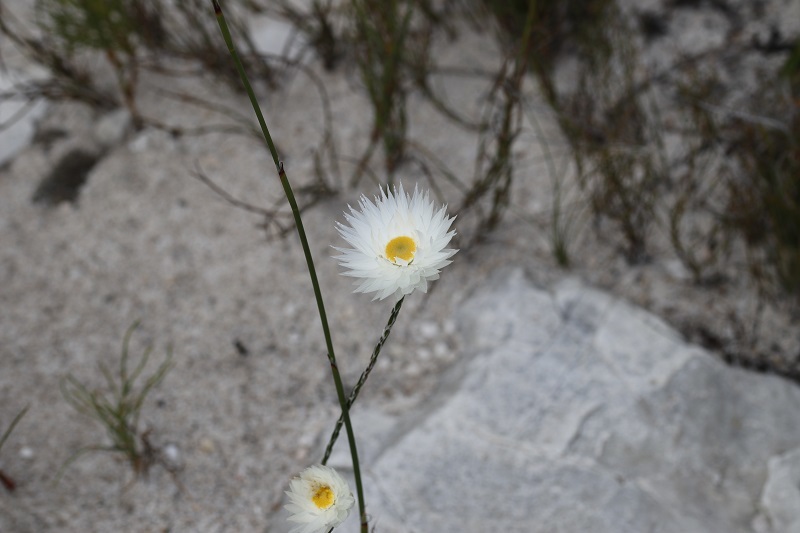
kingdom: Plantae
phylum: Tracheophyta
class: Magnoliopsida
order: Asterales
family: Asteraceae
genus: Edmondia
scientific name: Edmondia sesamoides
